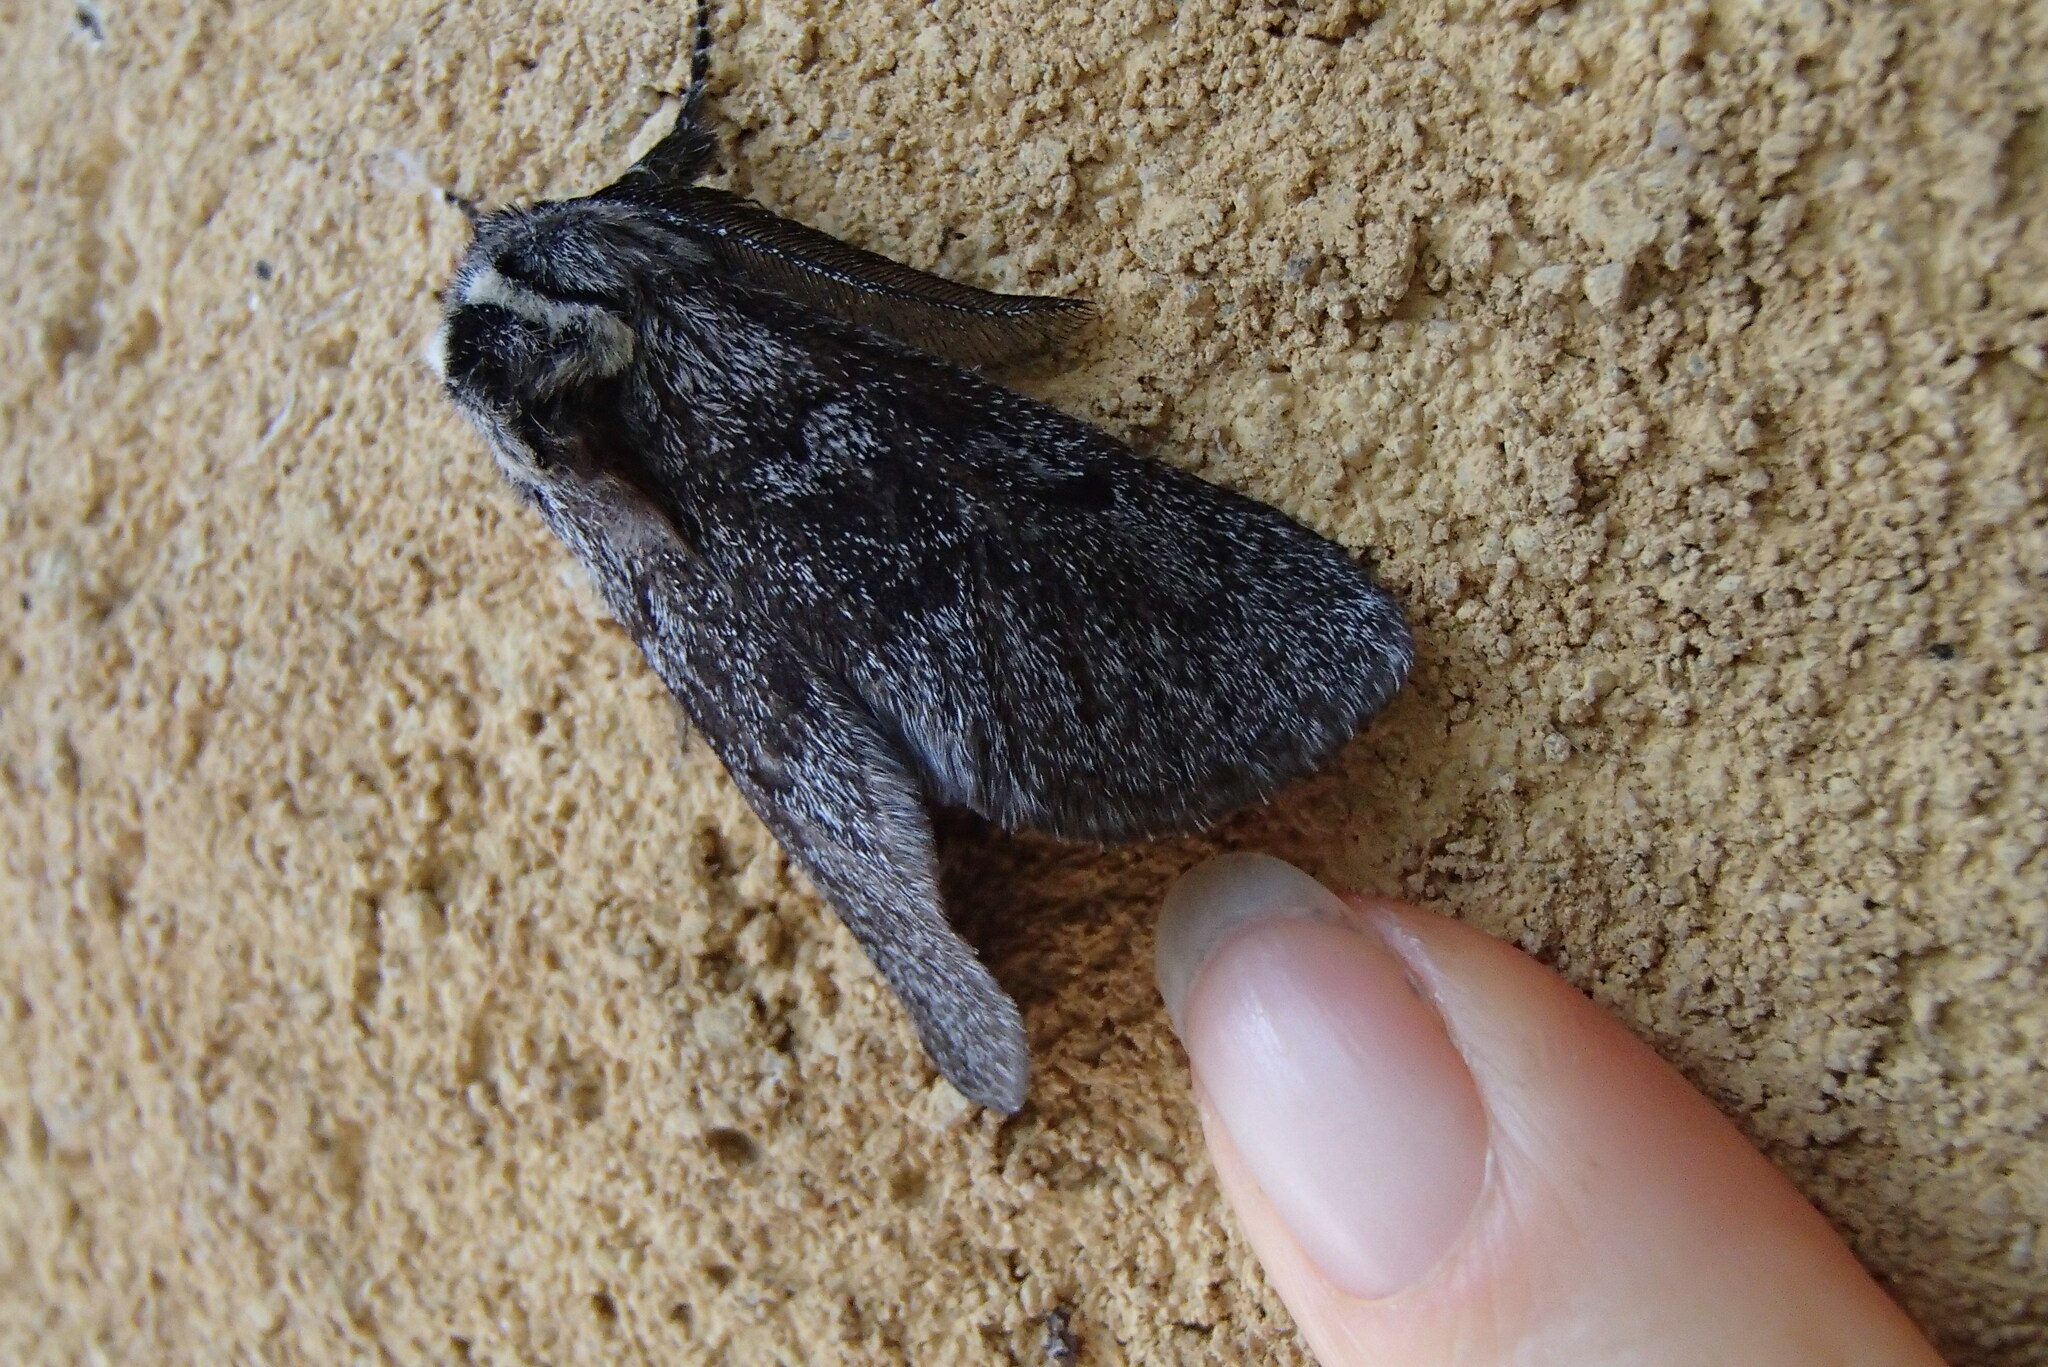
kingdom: Animalia
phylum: Arthropoda
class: Insecta
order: Lepidoptera
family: Cossidae
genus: Ptilomacra
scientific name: Ptilomacra senex
